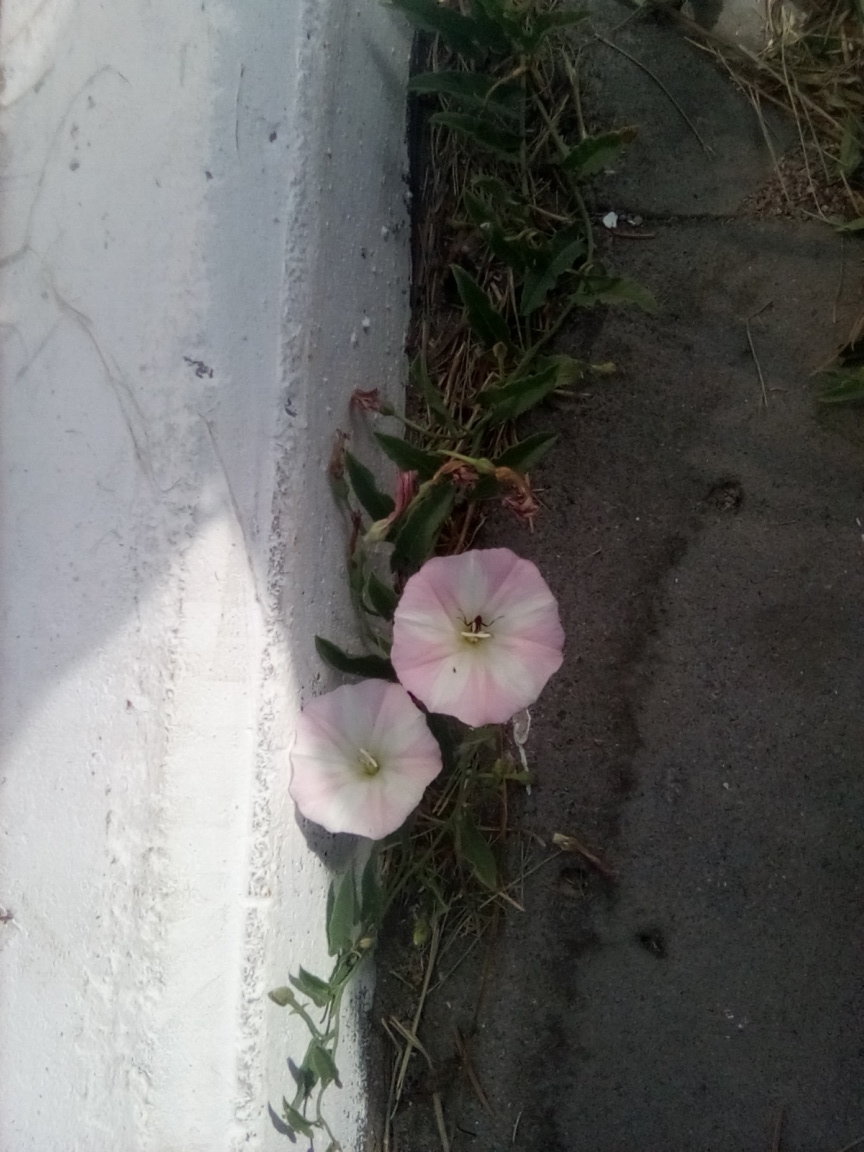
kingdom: Plantae
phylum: Tracheophyta
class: Magnoliopsida
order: Solanales
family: Convolvulaceae
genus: Convolvulus
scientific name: Convolvulus arvensis
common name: Field bindweed
